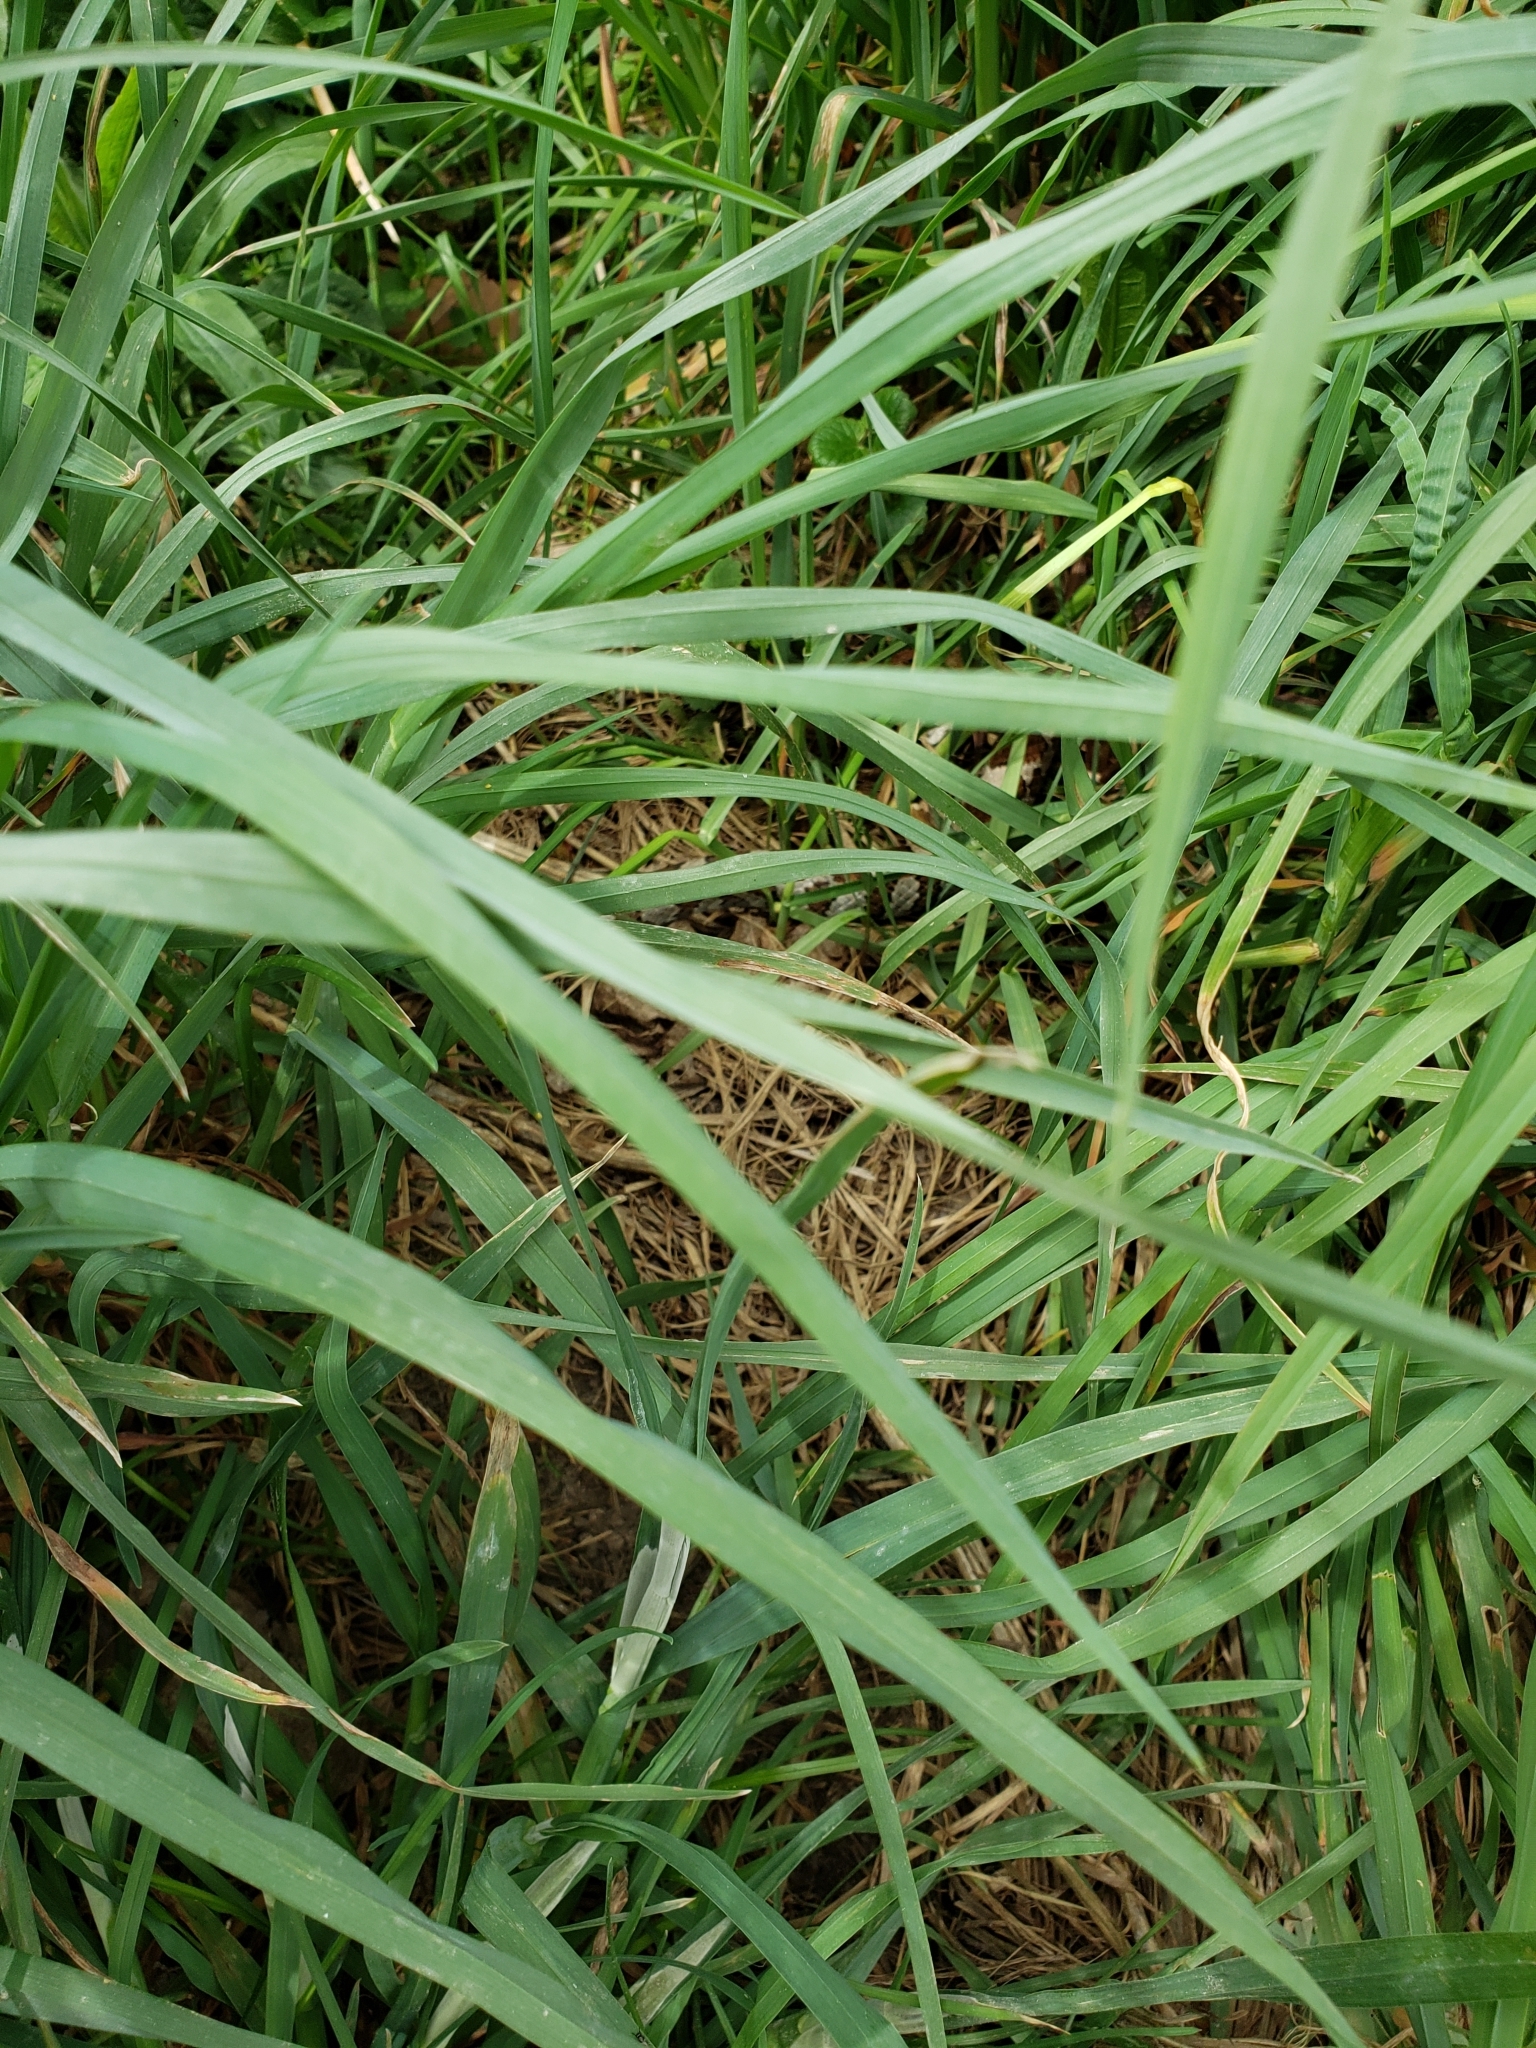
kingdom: Animalia
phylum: Chordata
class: Squamata
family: Colubridae
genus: Lampropeltis
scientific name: Lampropeltis triangulum
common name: Eastern milksnake
